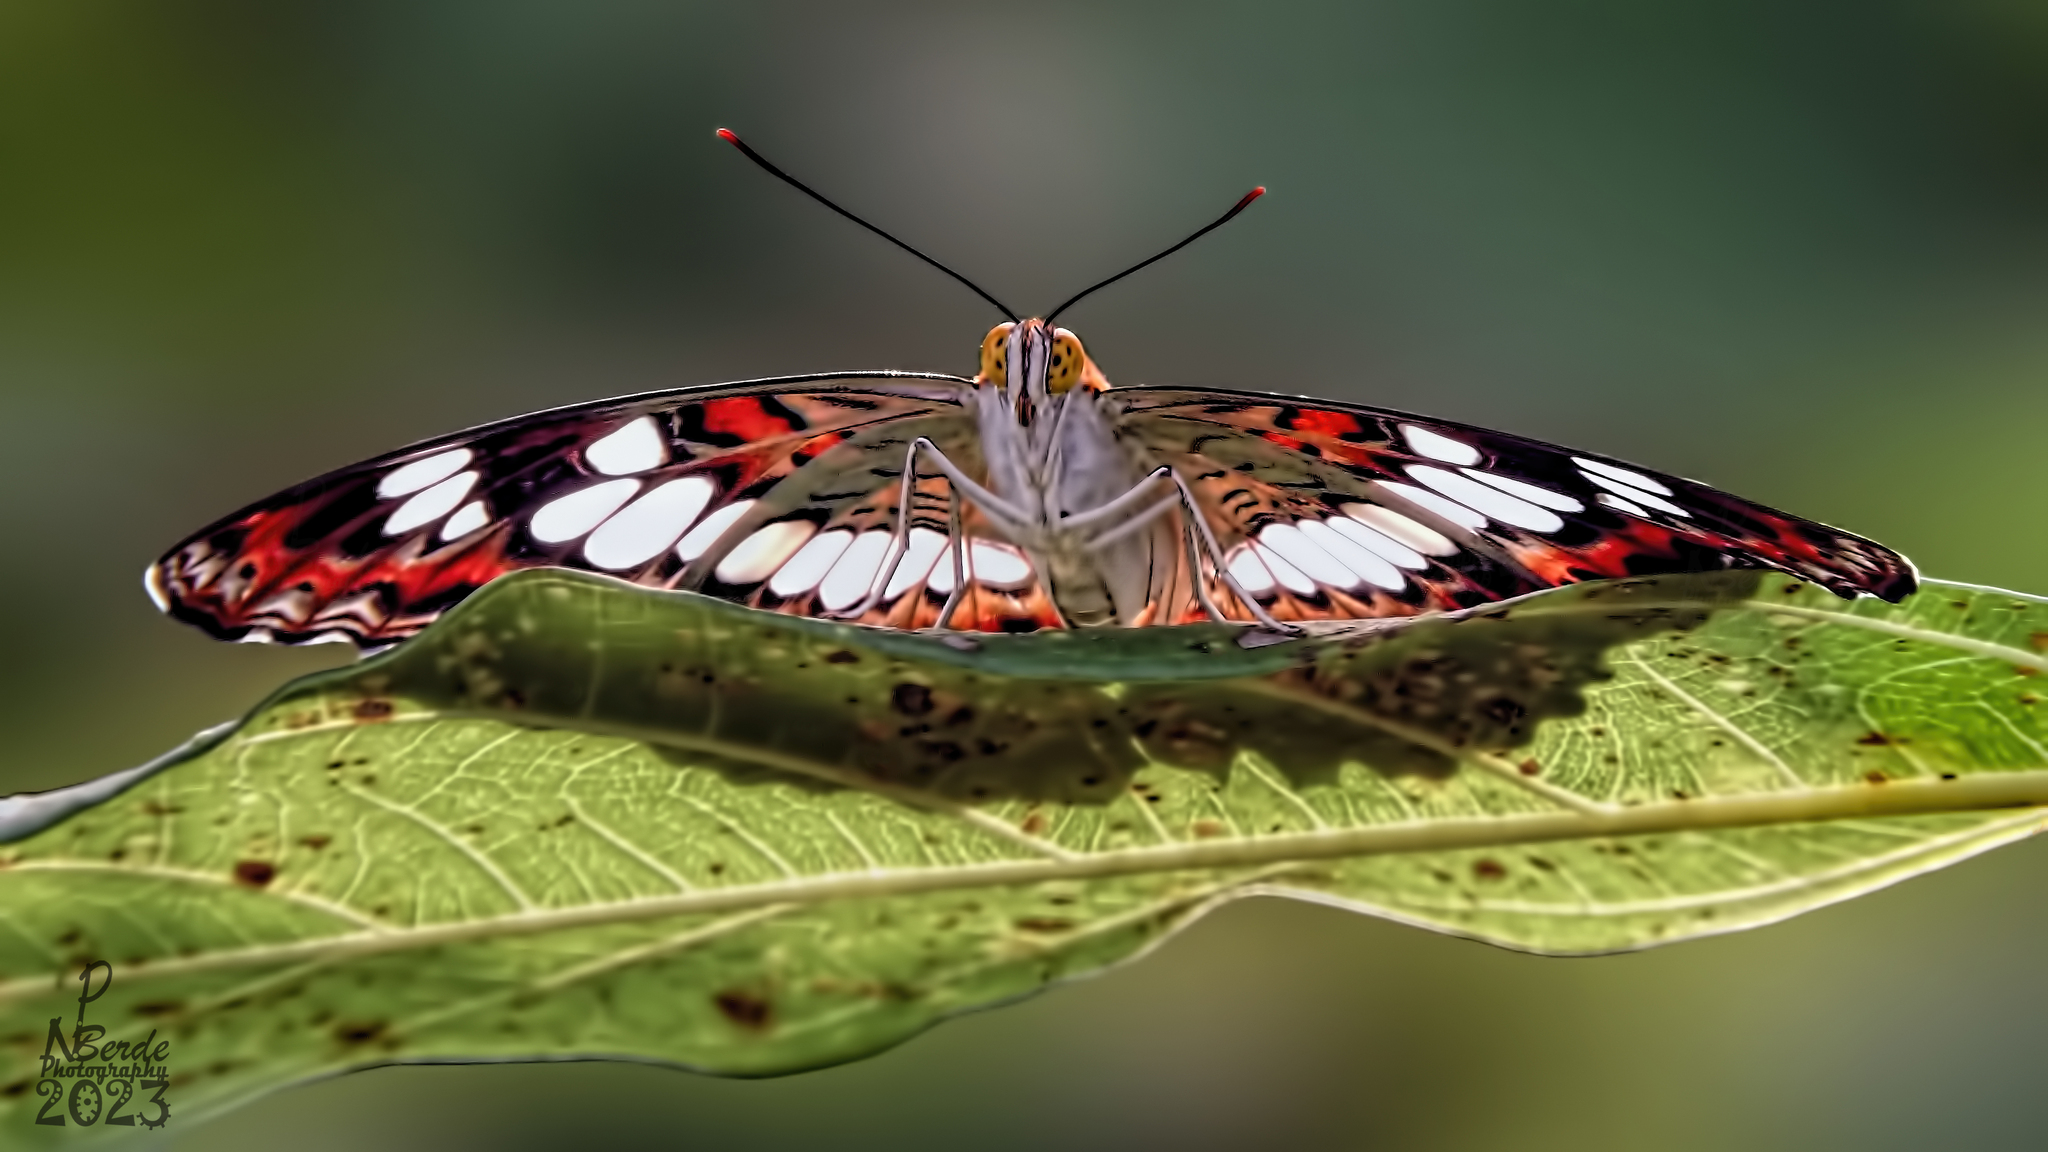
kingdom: Animalia
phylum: Arthropoda
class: Insecta
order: Lepidoptera
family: Nymphalidae
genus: Limenitis
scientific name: Limenitis Moduza procris
